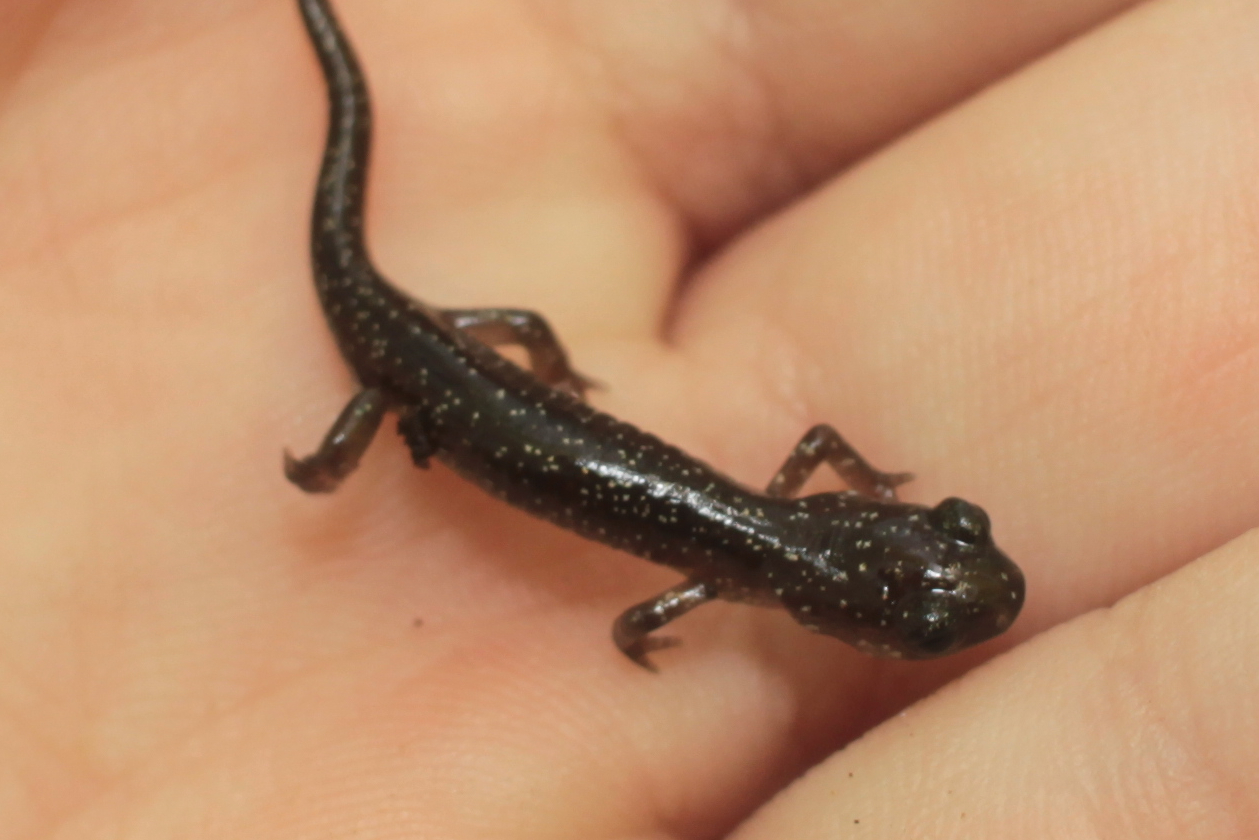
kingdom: Animalia
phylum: Chordata
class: Amphibia
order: Caudata
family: Plethodontidae
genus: Plethodon
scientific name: Plethodon teyahalee
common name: Southern appalachian salamander
